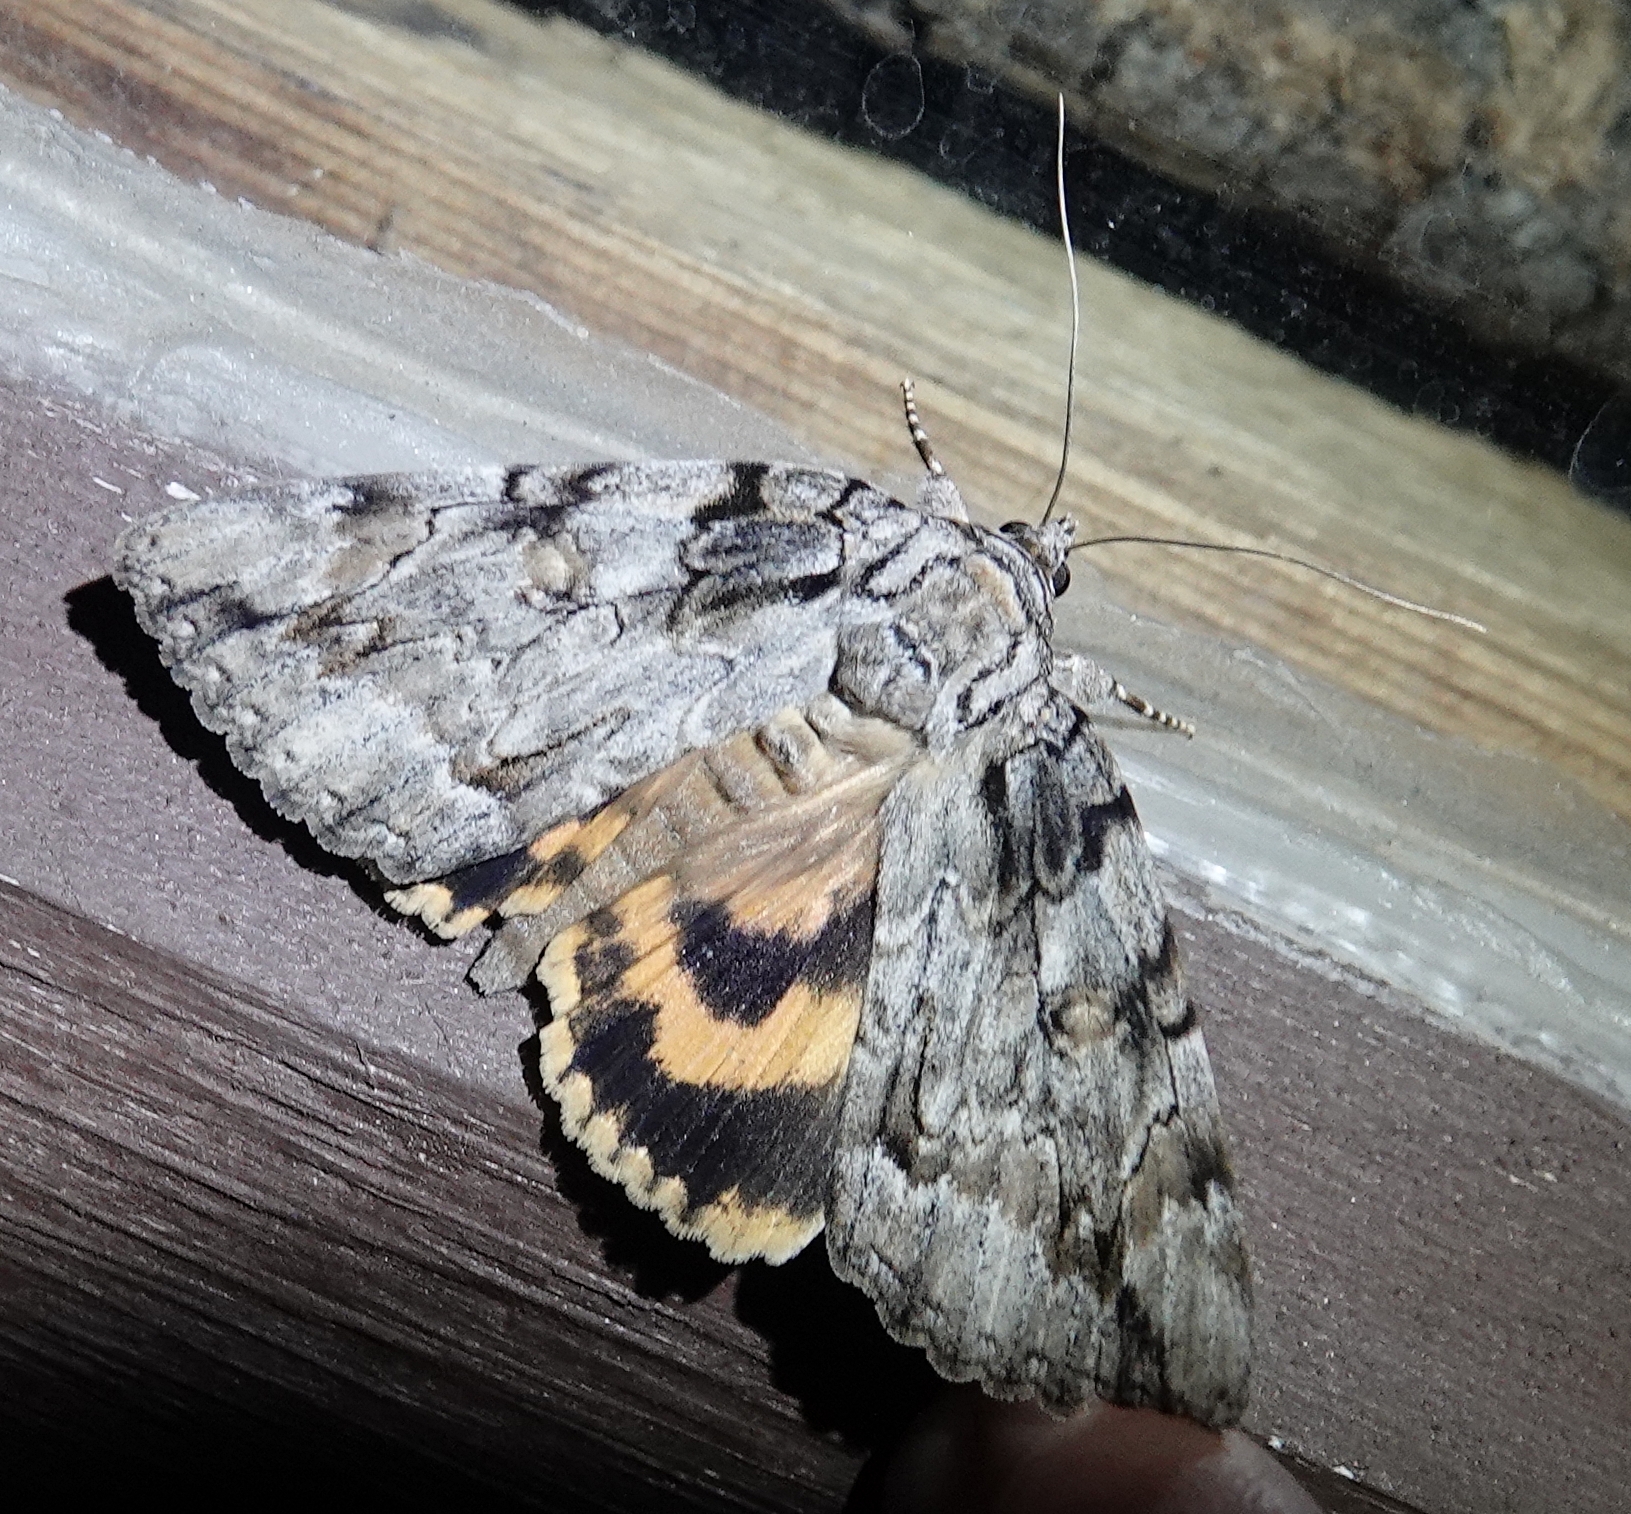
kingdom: Animalia
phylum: Arthropoda
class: Insecta
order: Lepidoptera
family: Erebidae
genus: Catocala
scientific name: Catocala neogama
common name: Bride underwing
